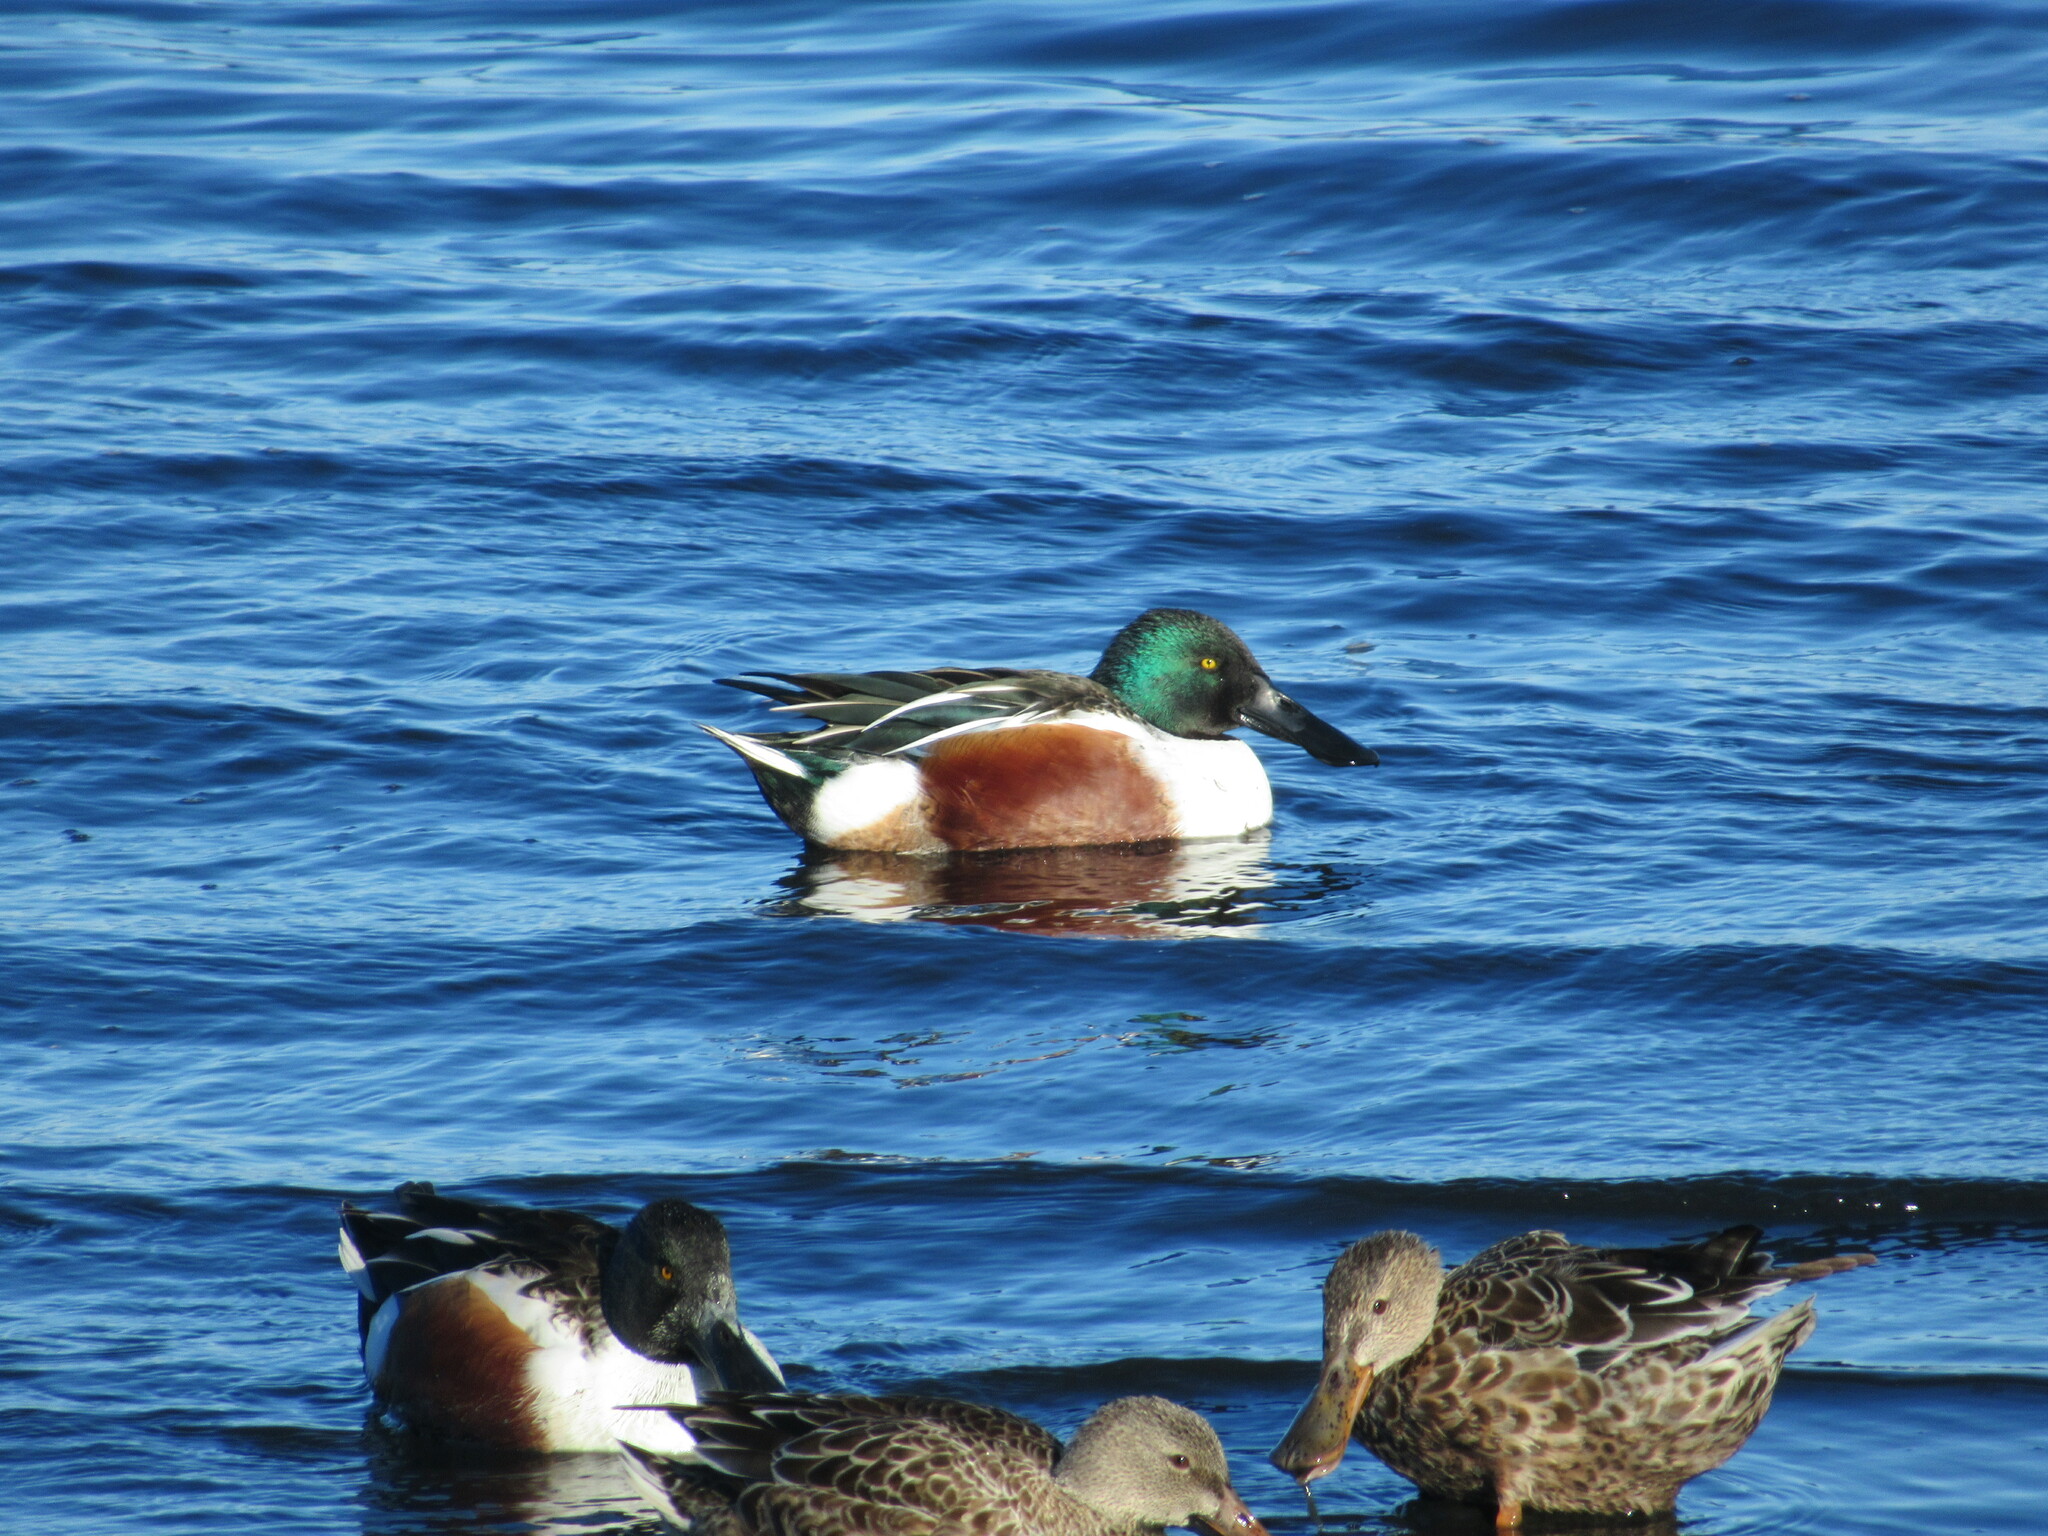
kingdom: Animalia
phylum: Chordata
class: Aves
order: Anseriformes
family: Anatidae
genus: Spatula
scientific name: Spatula clypeata
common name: Northern shoveler
